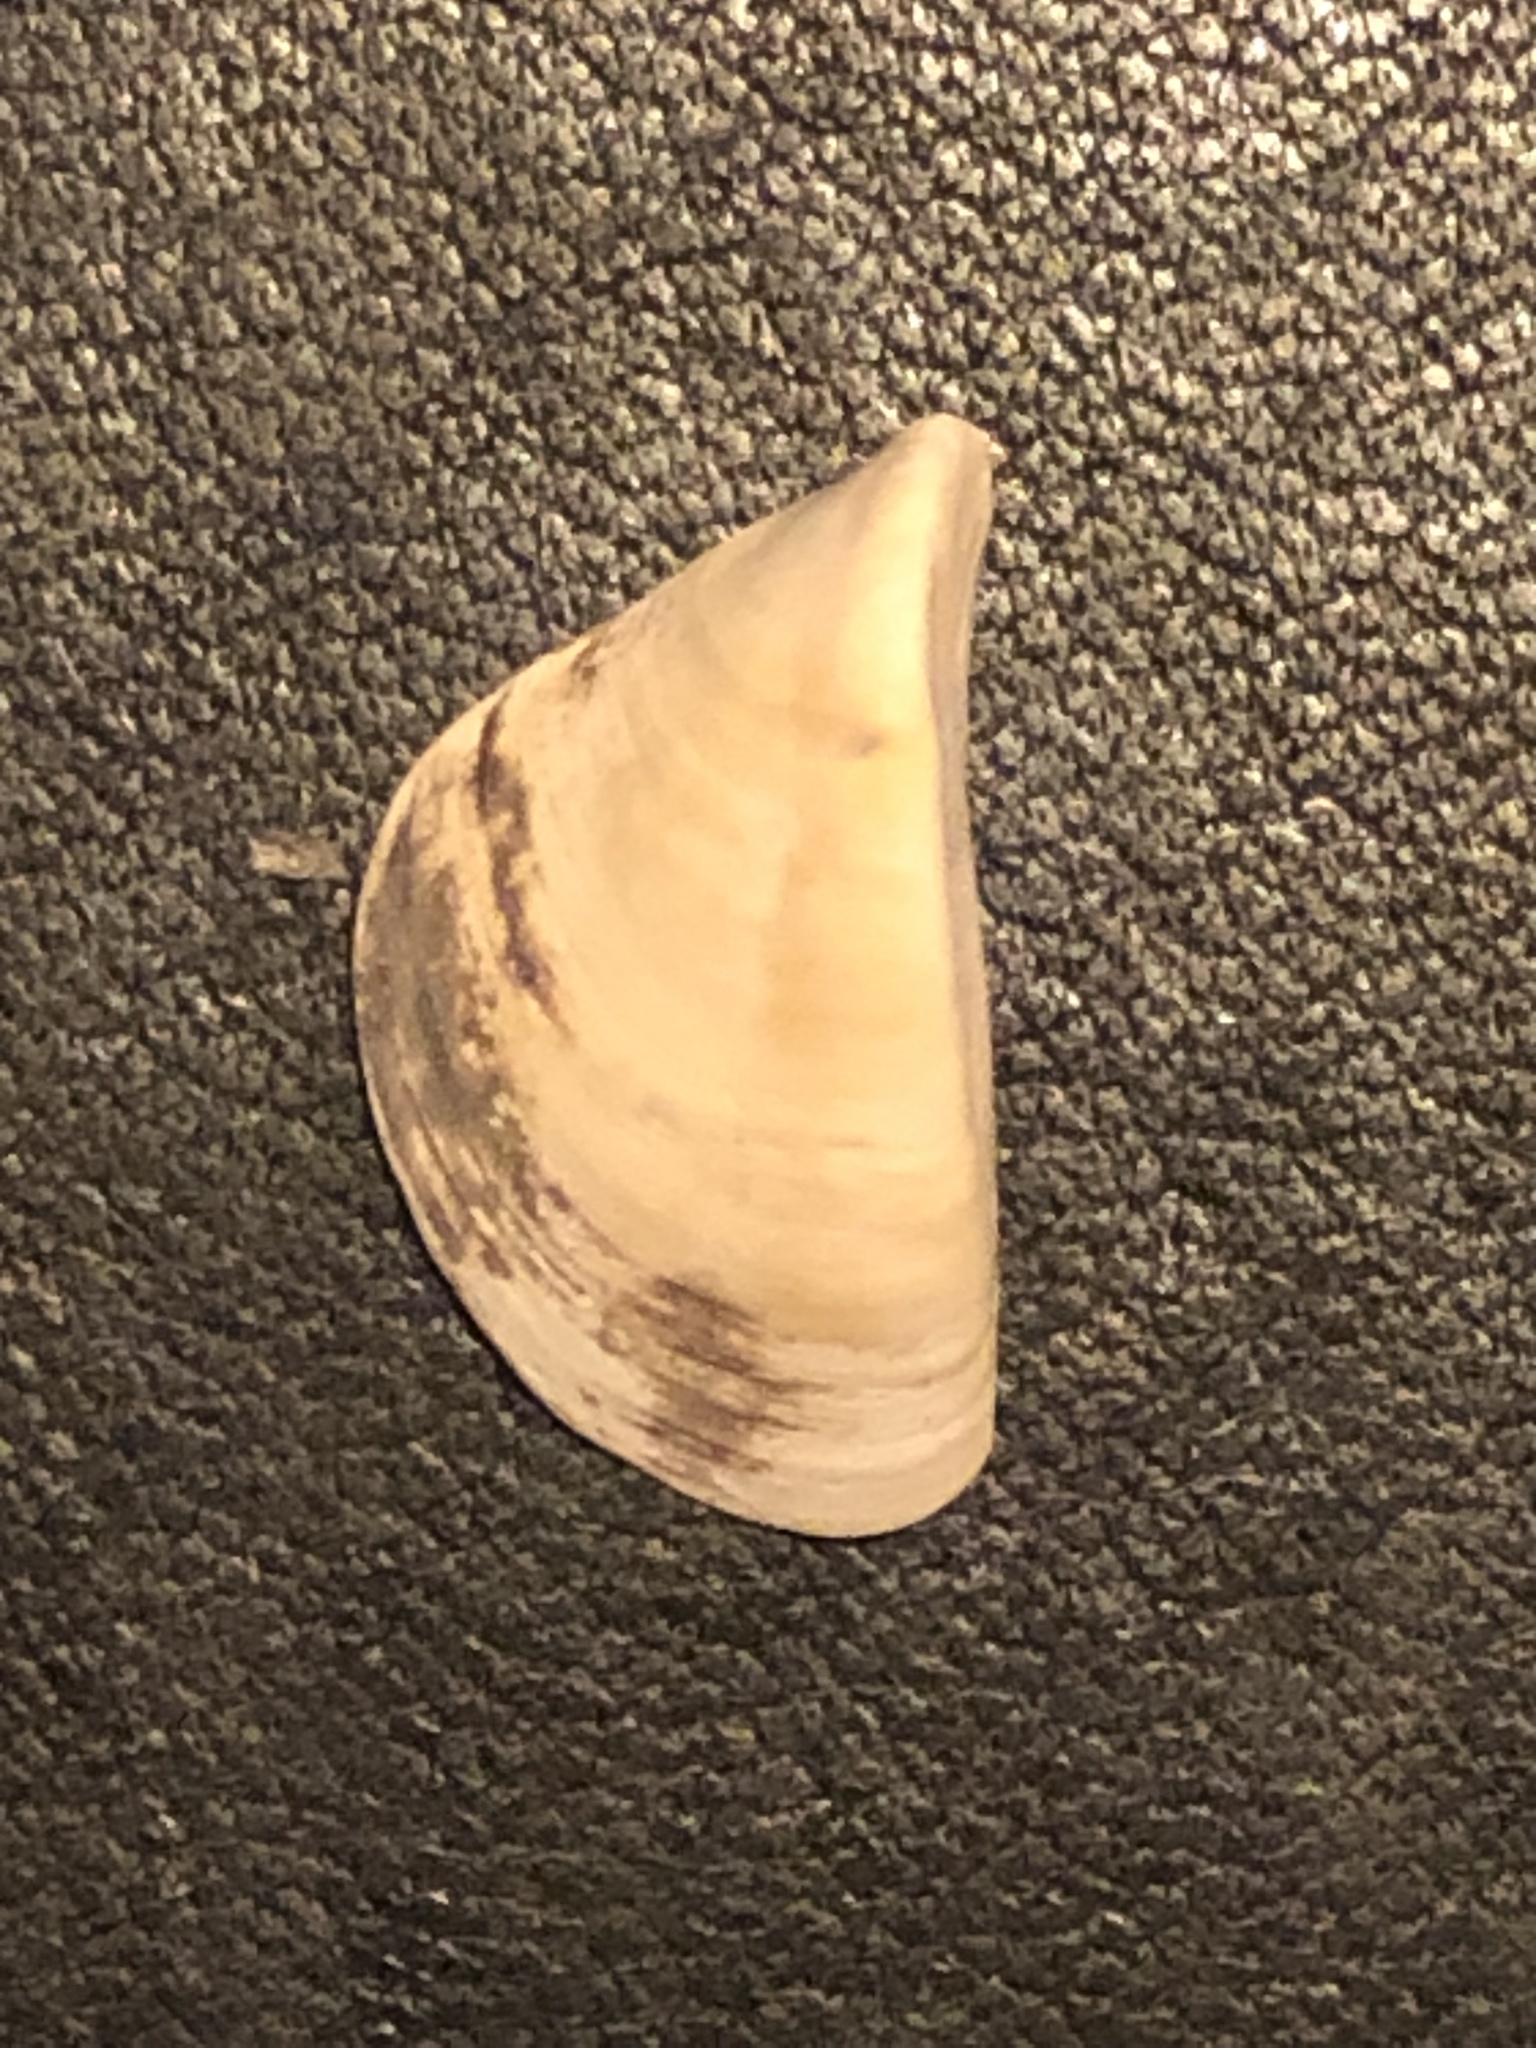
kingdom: Animalia
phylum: Mollusca
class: Bivalvia
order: Myida
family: Dreissenidae
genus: Dreissena
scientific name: Dreissena polymorpha
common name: Zebra mussel
